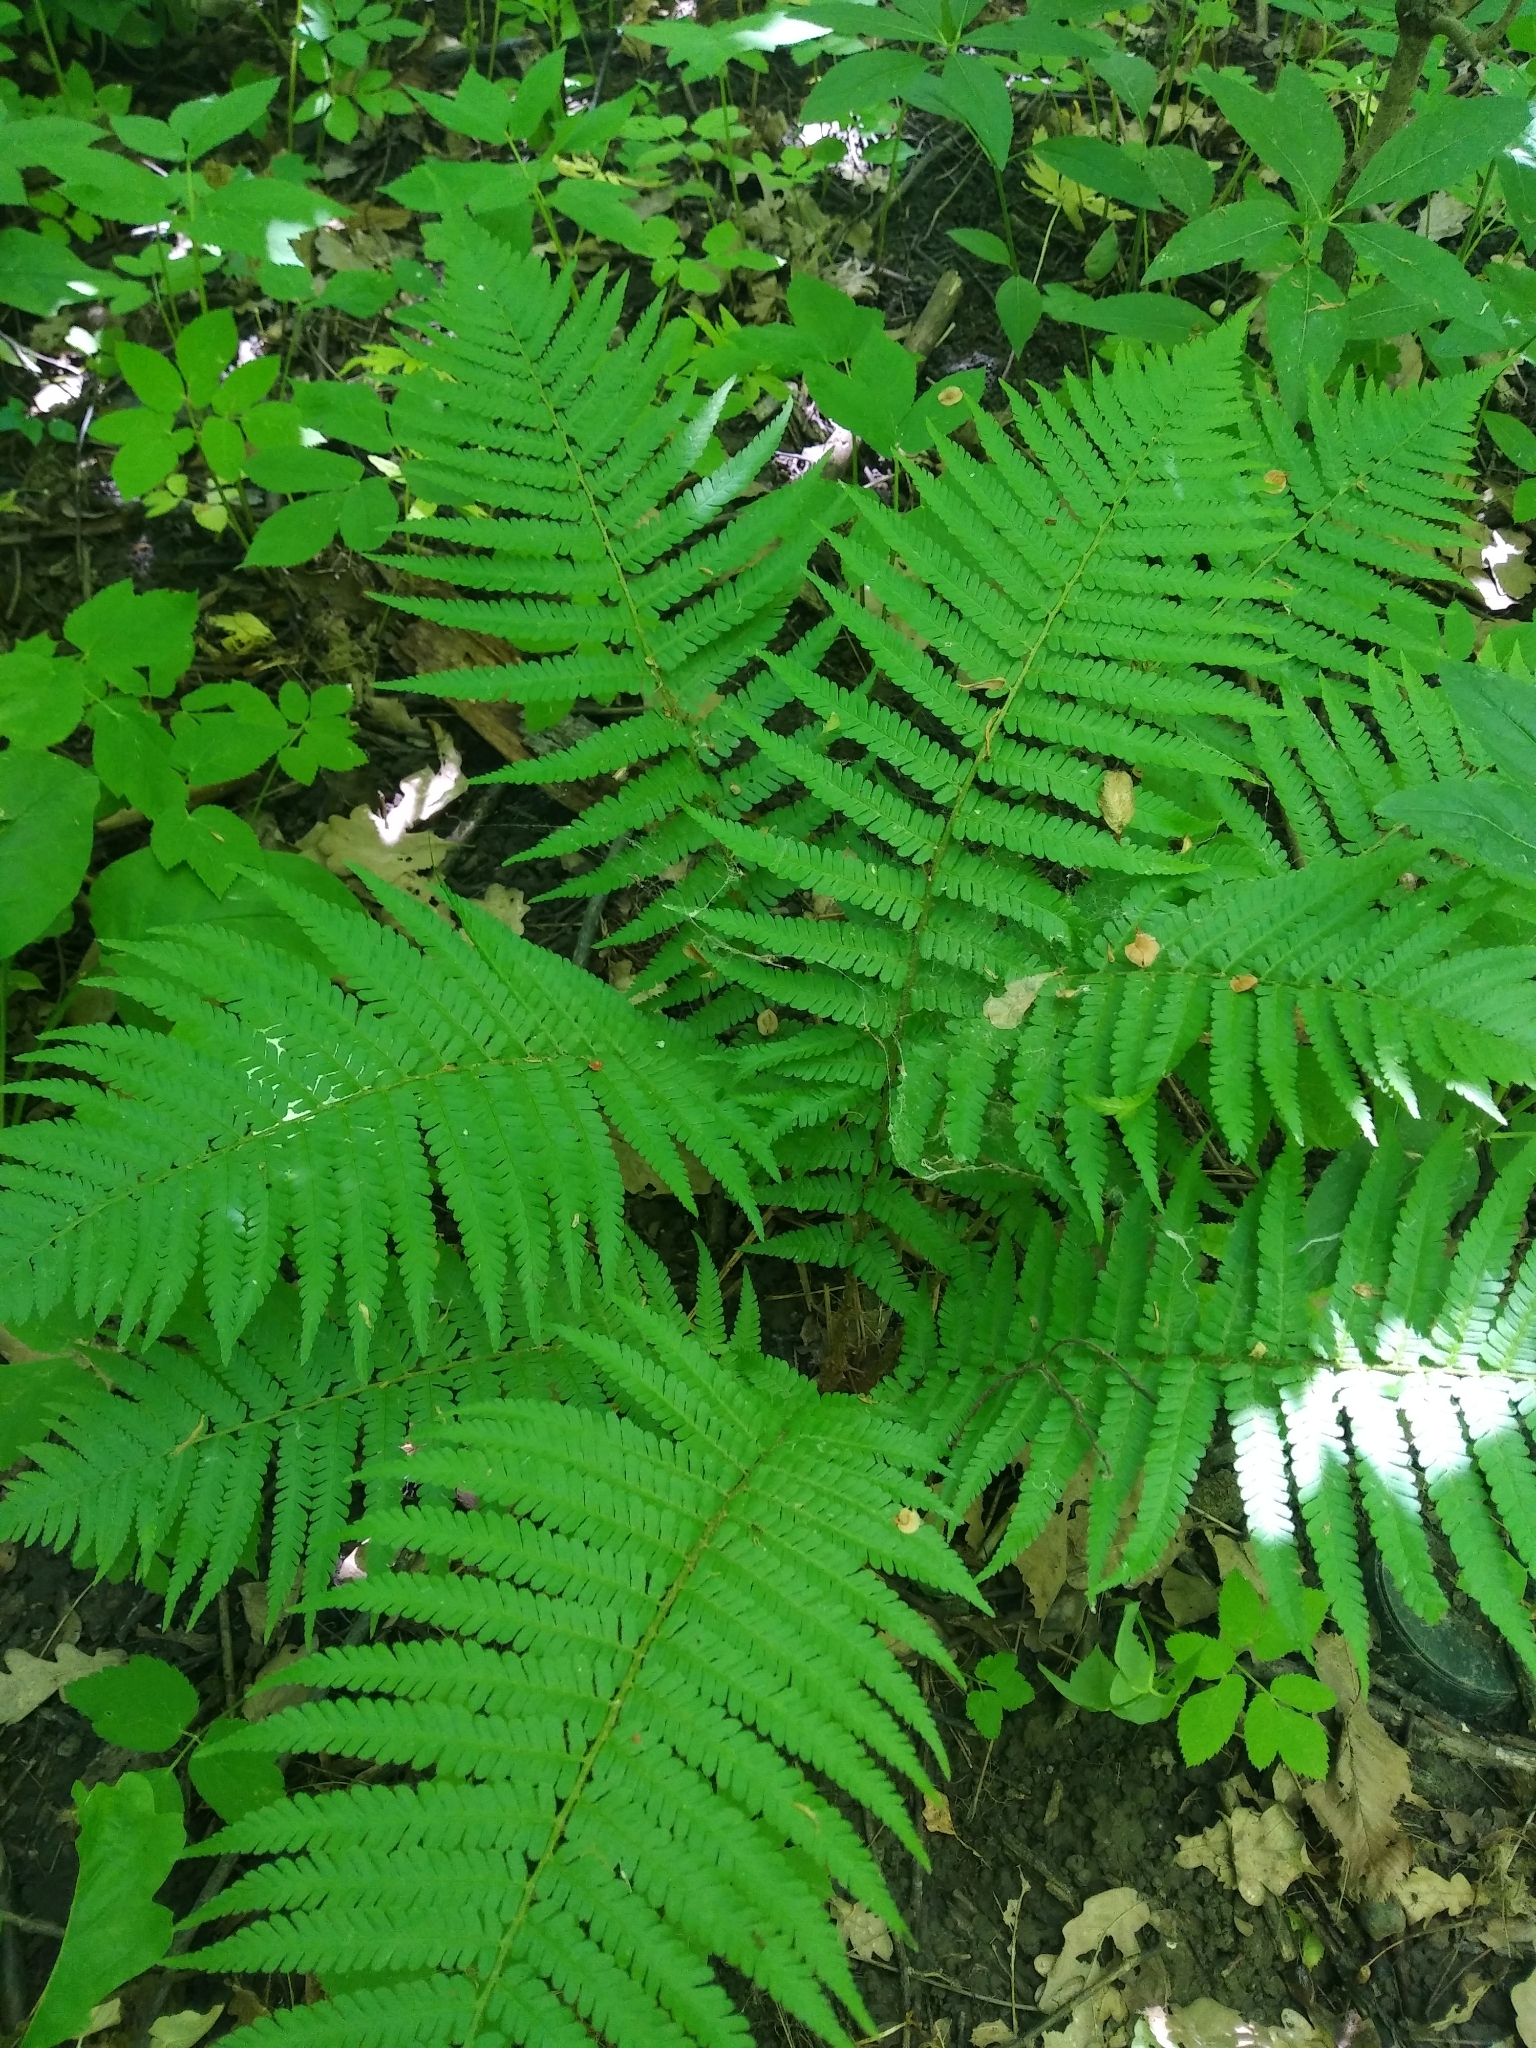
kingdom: Plantae
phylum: Tracheophyta
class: Polypodiopsida
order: Polypodiales
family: Dryopteridaceae
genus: Dryopteris
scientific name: Dryopteris filix-mas
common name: Male fern
